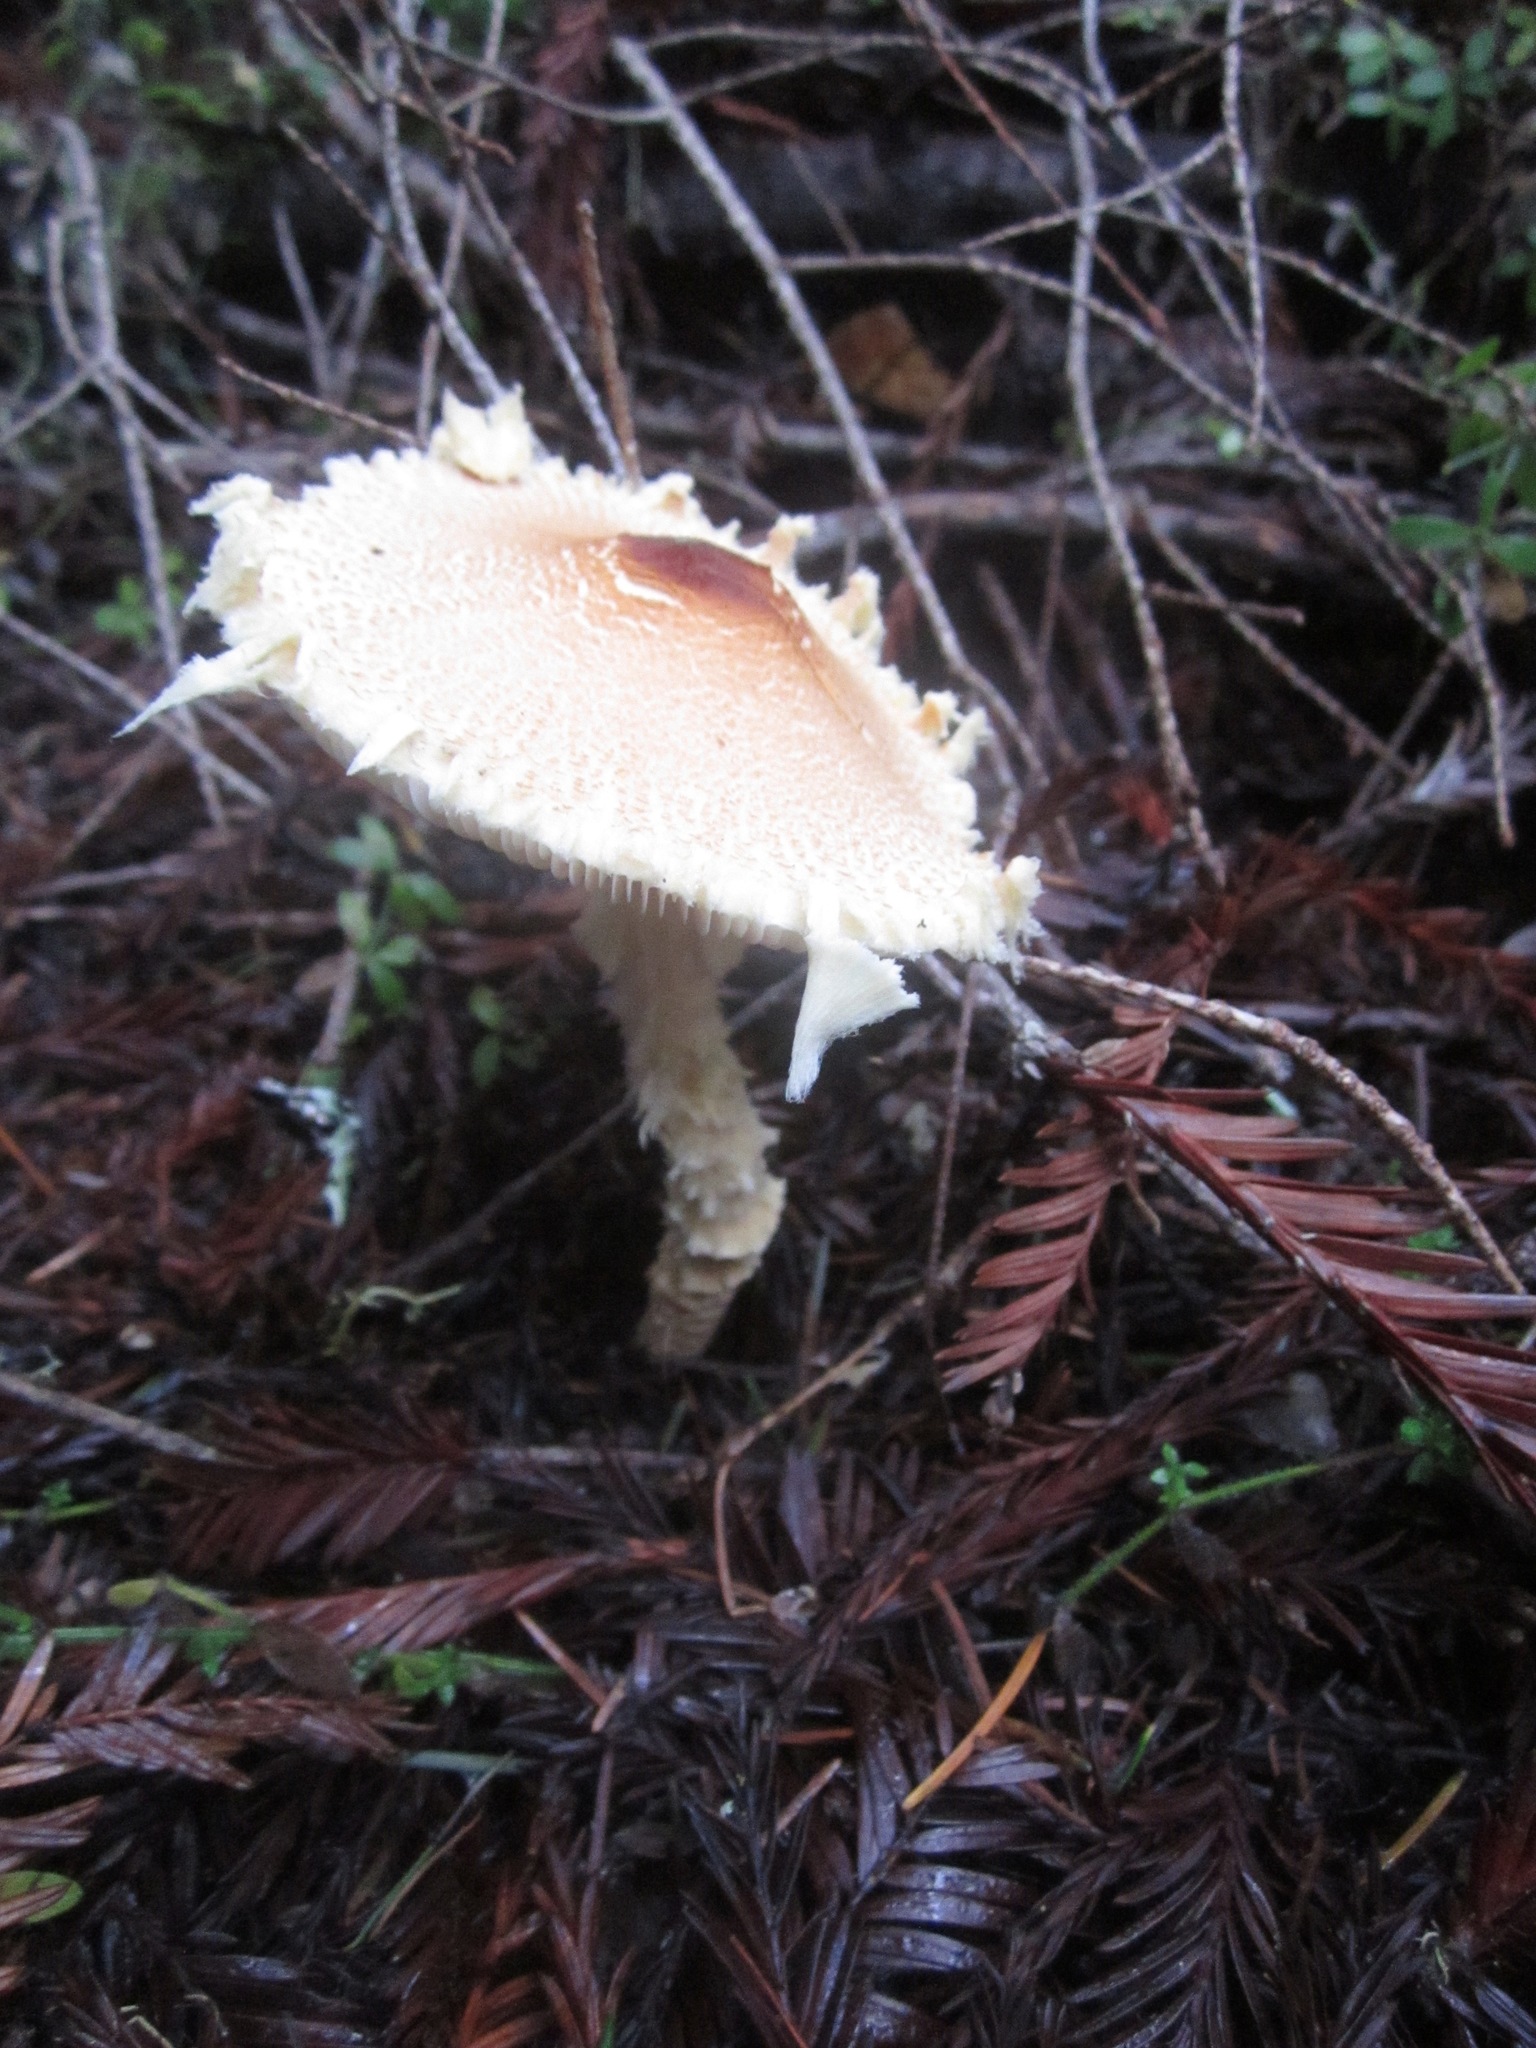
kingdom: Fungi
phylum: Basidiomycota
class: Agaricomycetes
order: Agaricales
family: Agaricaceae
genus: Lepiota
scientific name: Lepiota magnispora
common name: Yellowfoot dapperling
